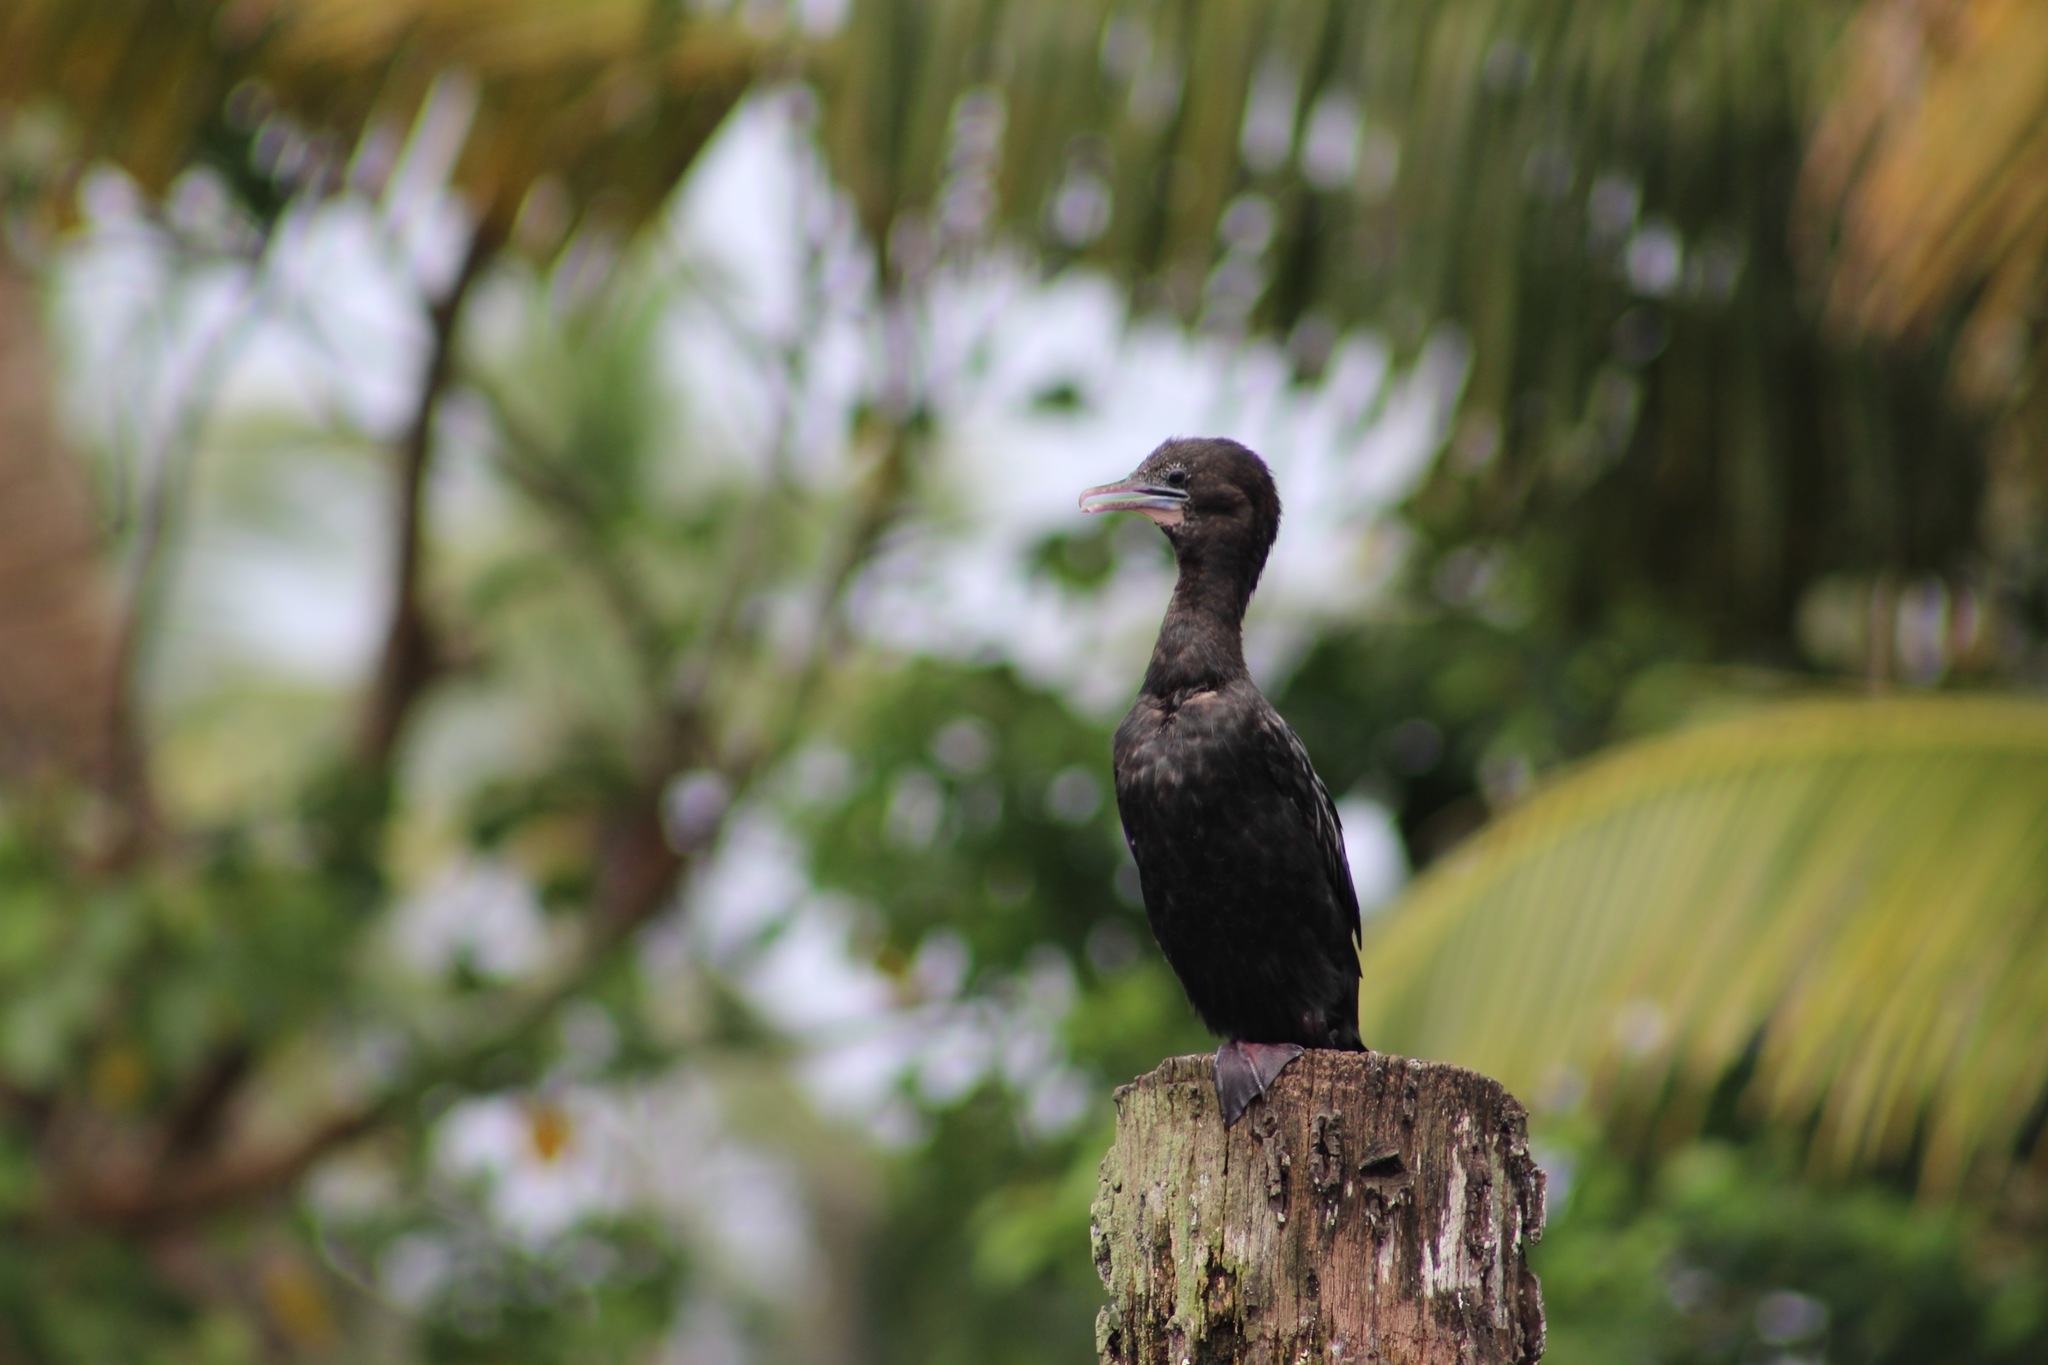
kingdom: Animalia
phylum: Chordata
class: Aves
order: Suliformes
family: Phalacrocoracidae
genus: Microcarbo
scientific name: Microcarbo niger
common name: Little cormorant
